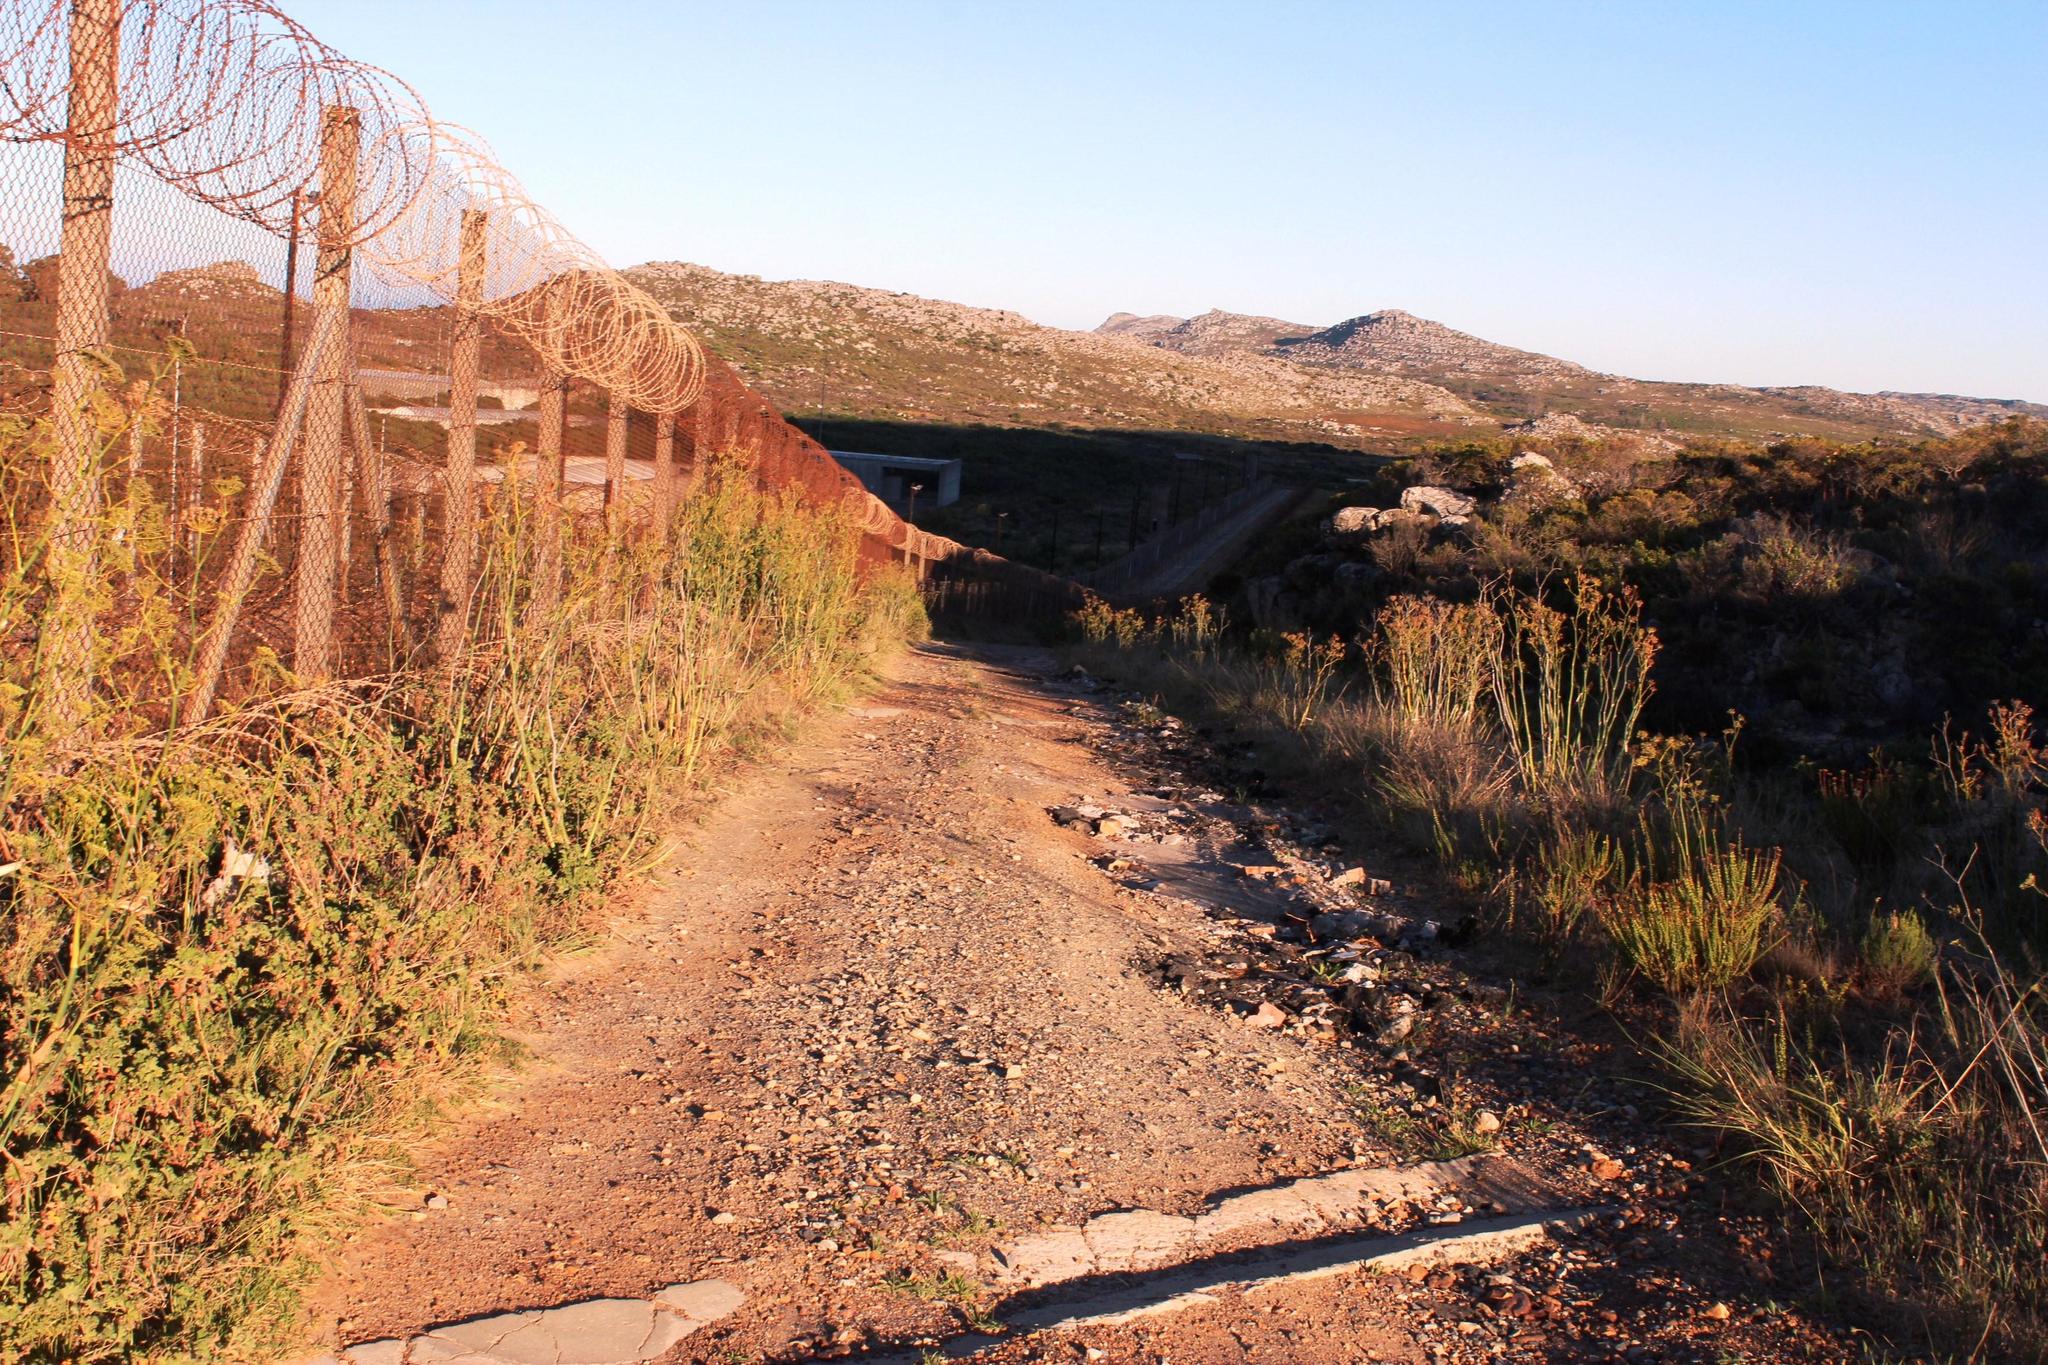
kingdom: Plantae
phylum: Tracheophyta
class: Magnoliopsida
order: Apiales
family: Apiaceae
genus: Foeniculum
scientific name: Foeniculum vulgare
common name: Fennel
